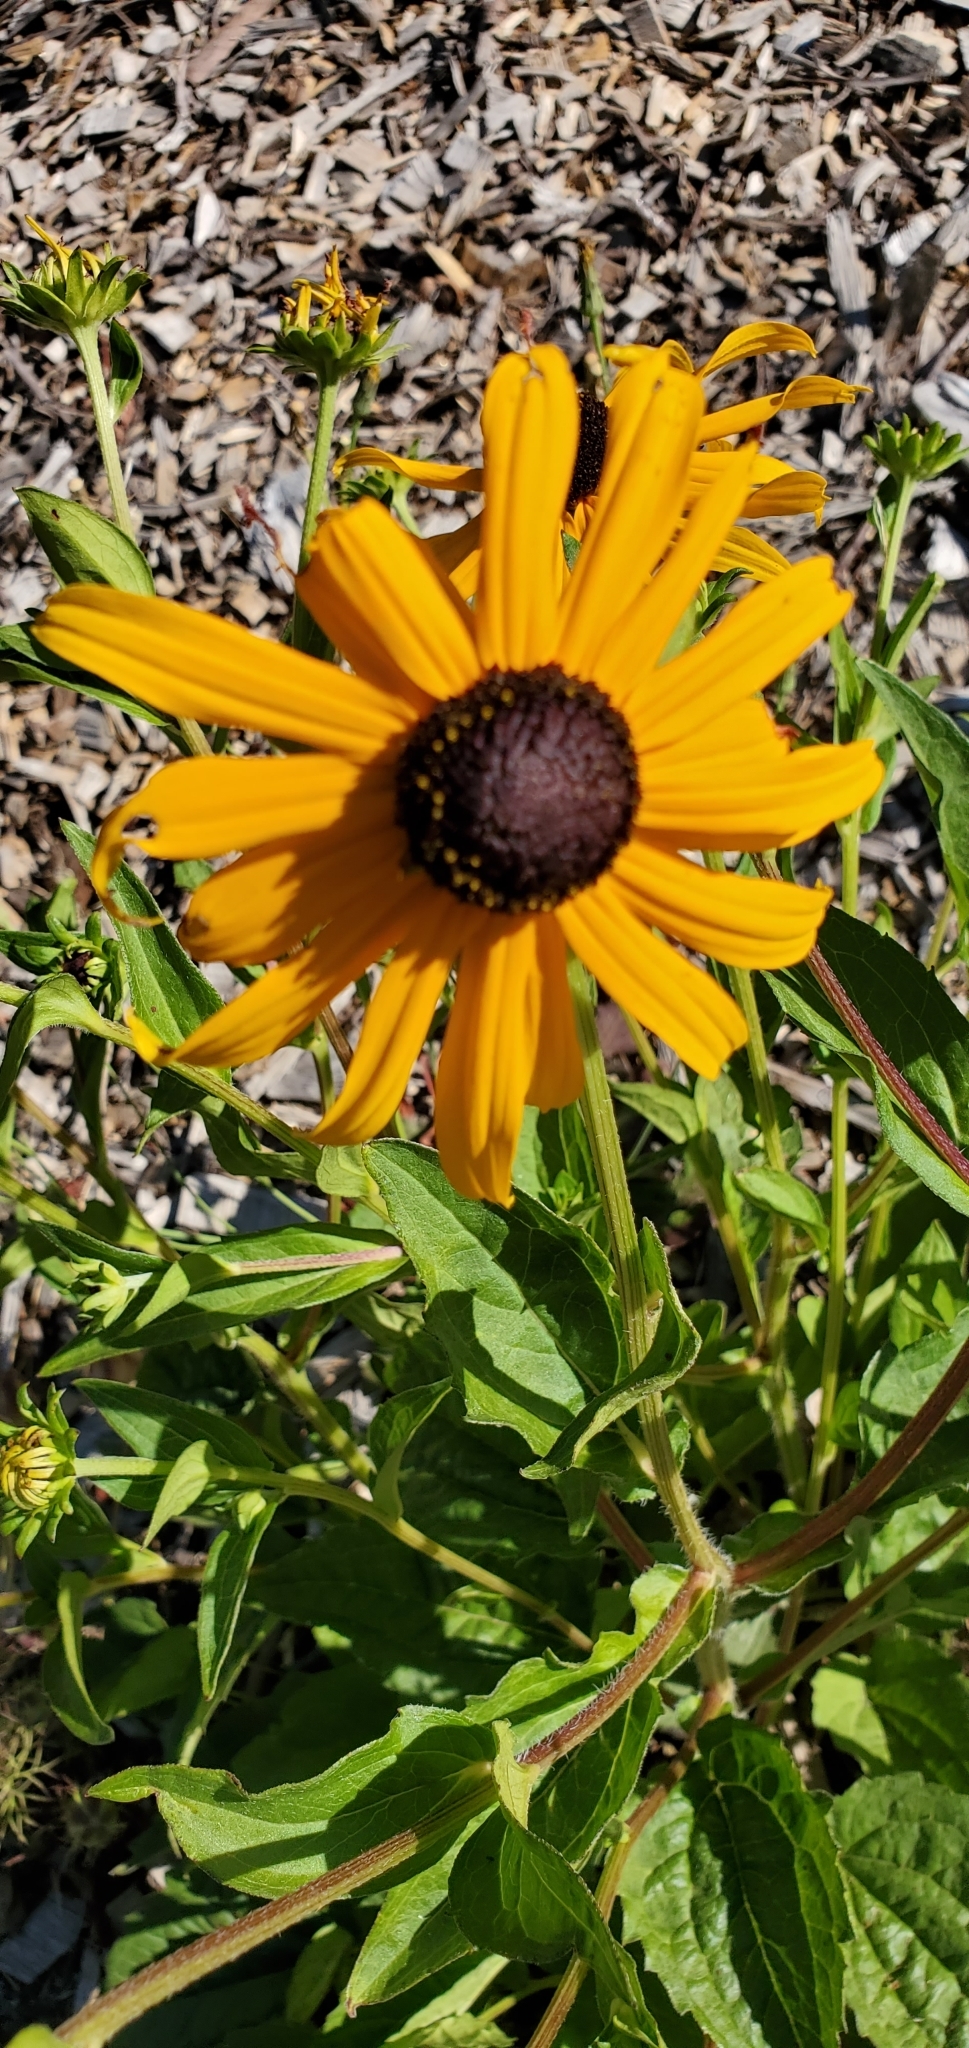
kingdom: Plantae
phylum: Tracheophyta
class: Magnoliopsida
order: Asterales
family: Asteraceae
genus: Rudbeckia
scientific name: Rudbeckia hirta
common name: Black-eyed-susan
